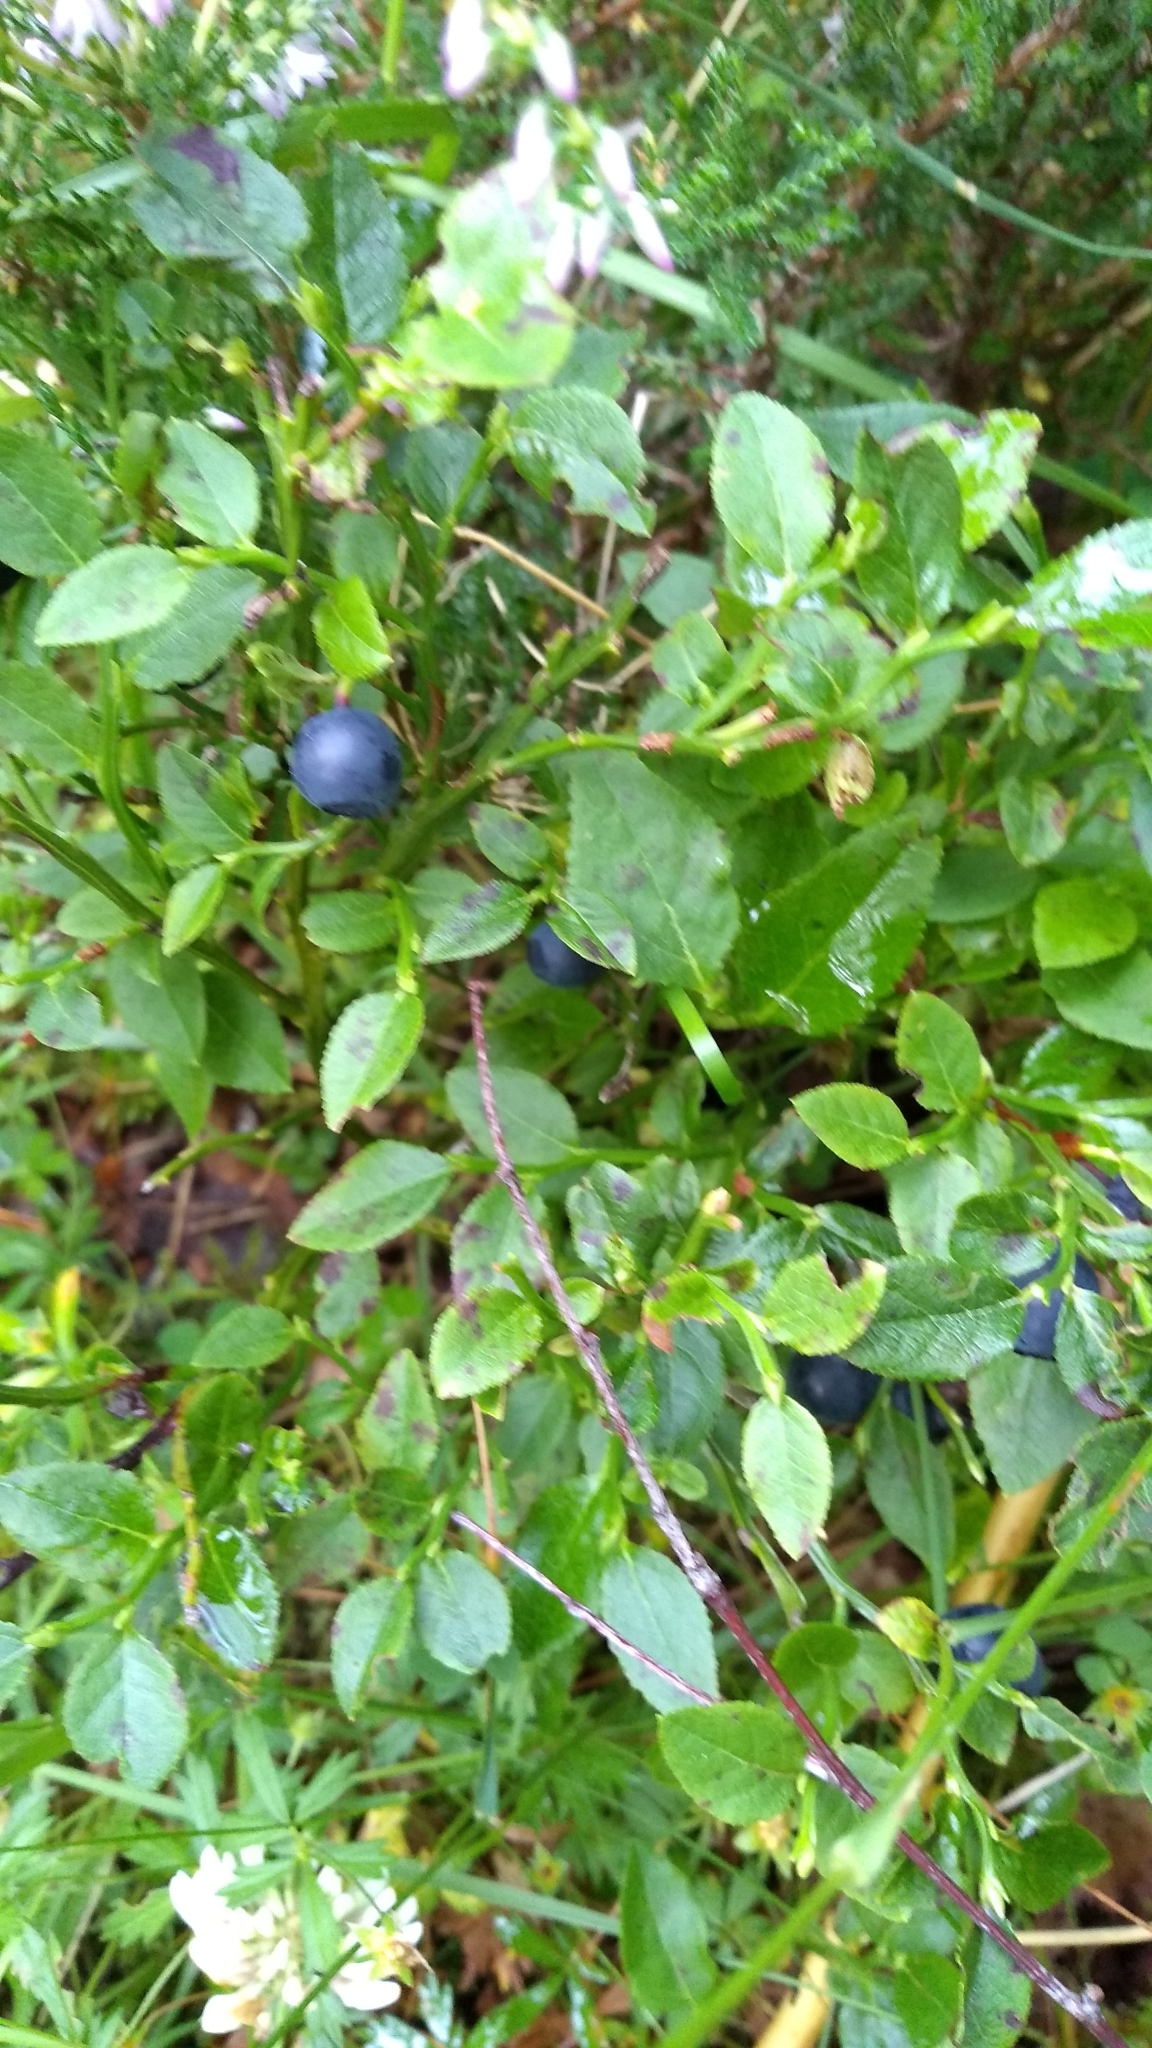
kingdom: Plantae
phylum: Tracheophyta
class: Magnoliopsida
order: Ericales
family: Ericaceae
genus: Vaccinium
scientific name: Vaccinium myrtillus
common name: Bilberry
